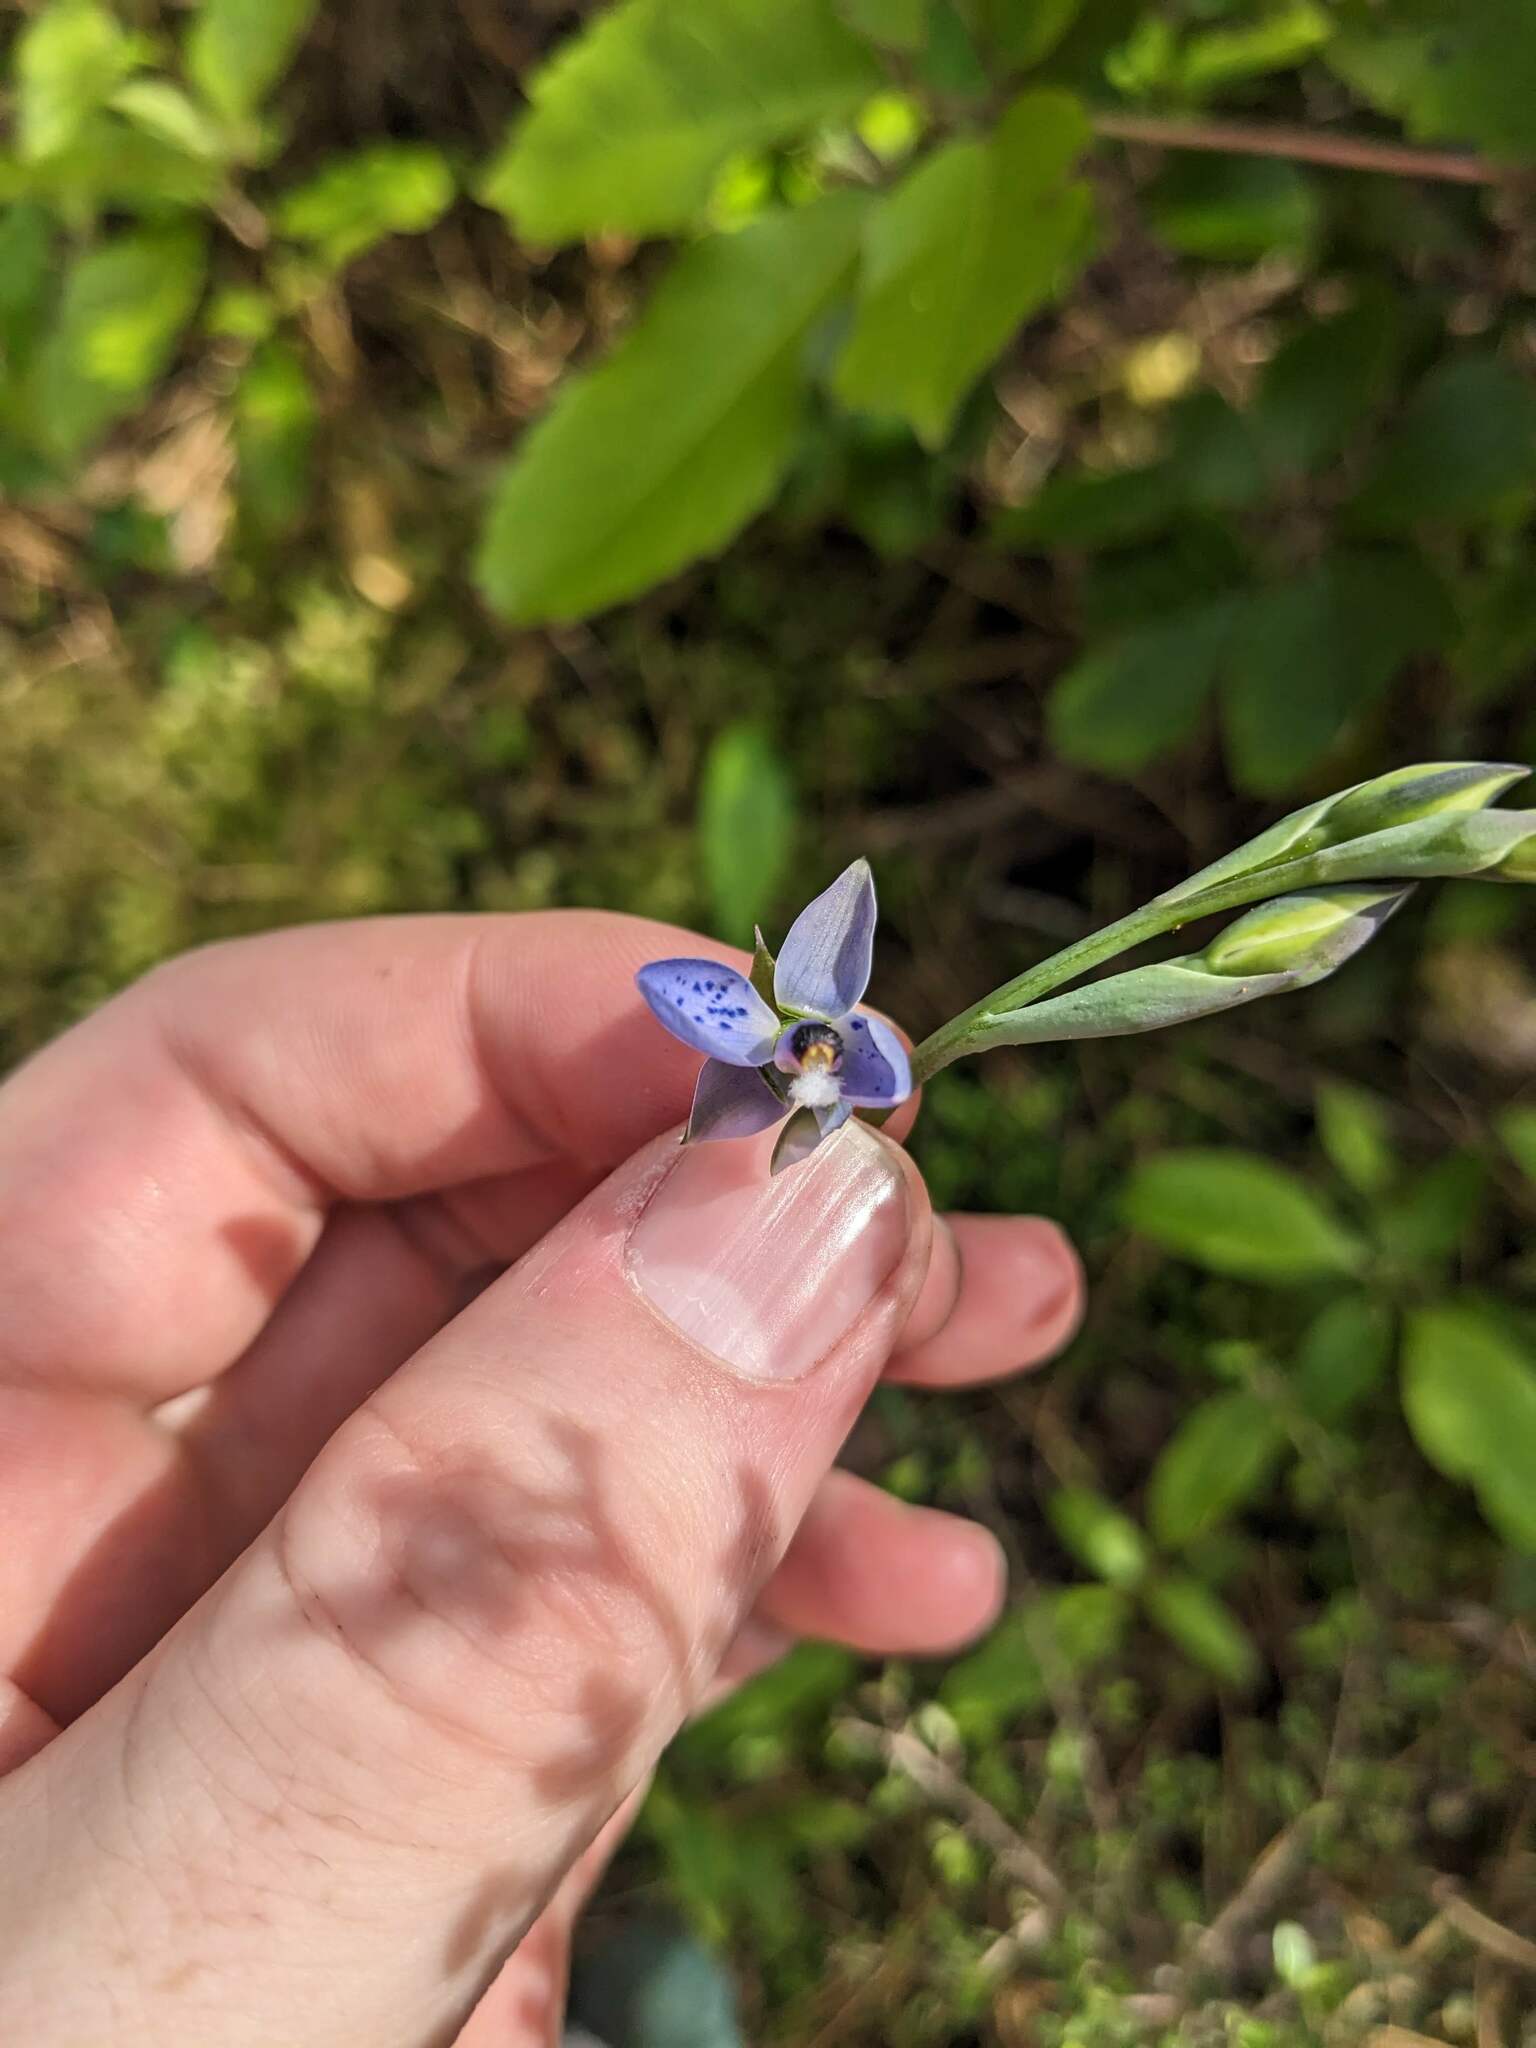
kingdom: Plantae
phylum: Tracheophyta
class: Liliopsida
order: Asparagales
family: Orchidaceae
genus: Thelymitra
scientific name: Thelymitra nervosa
